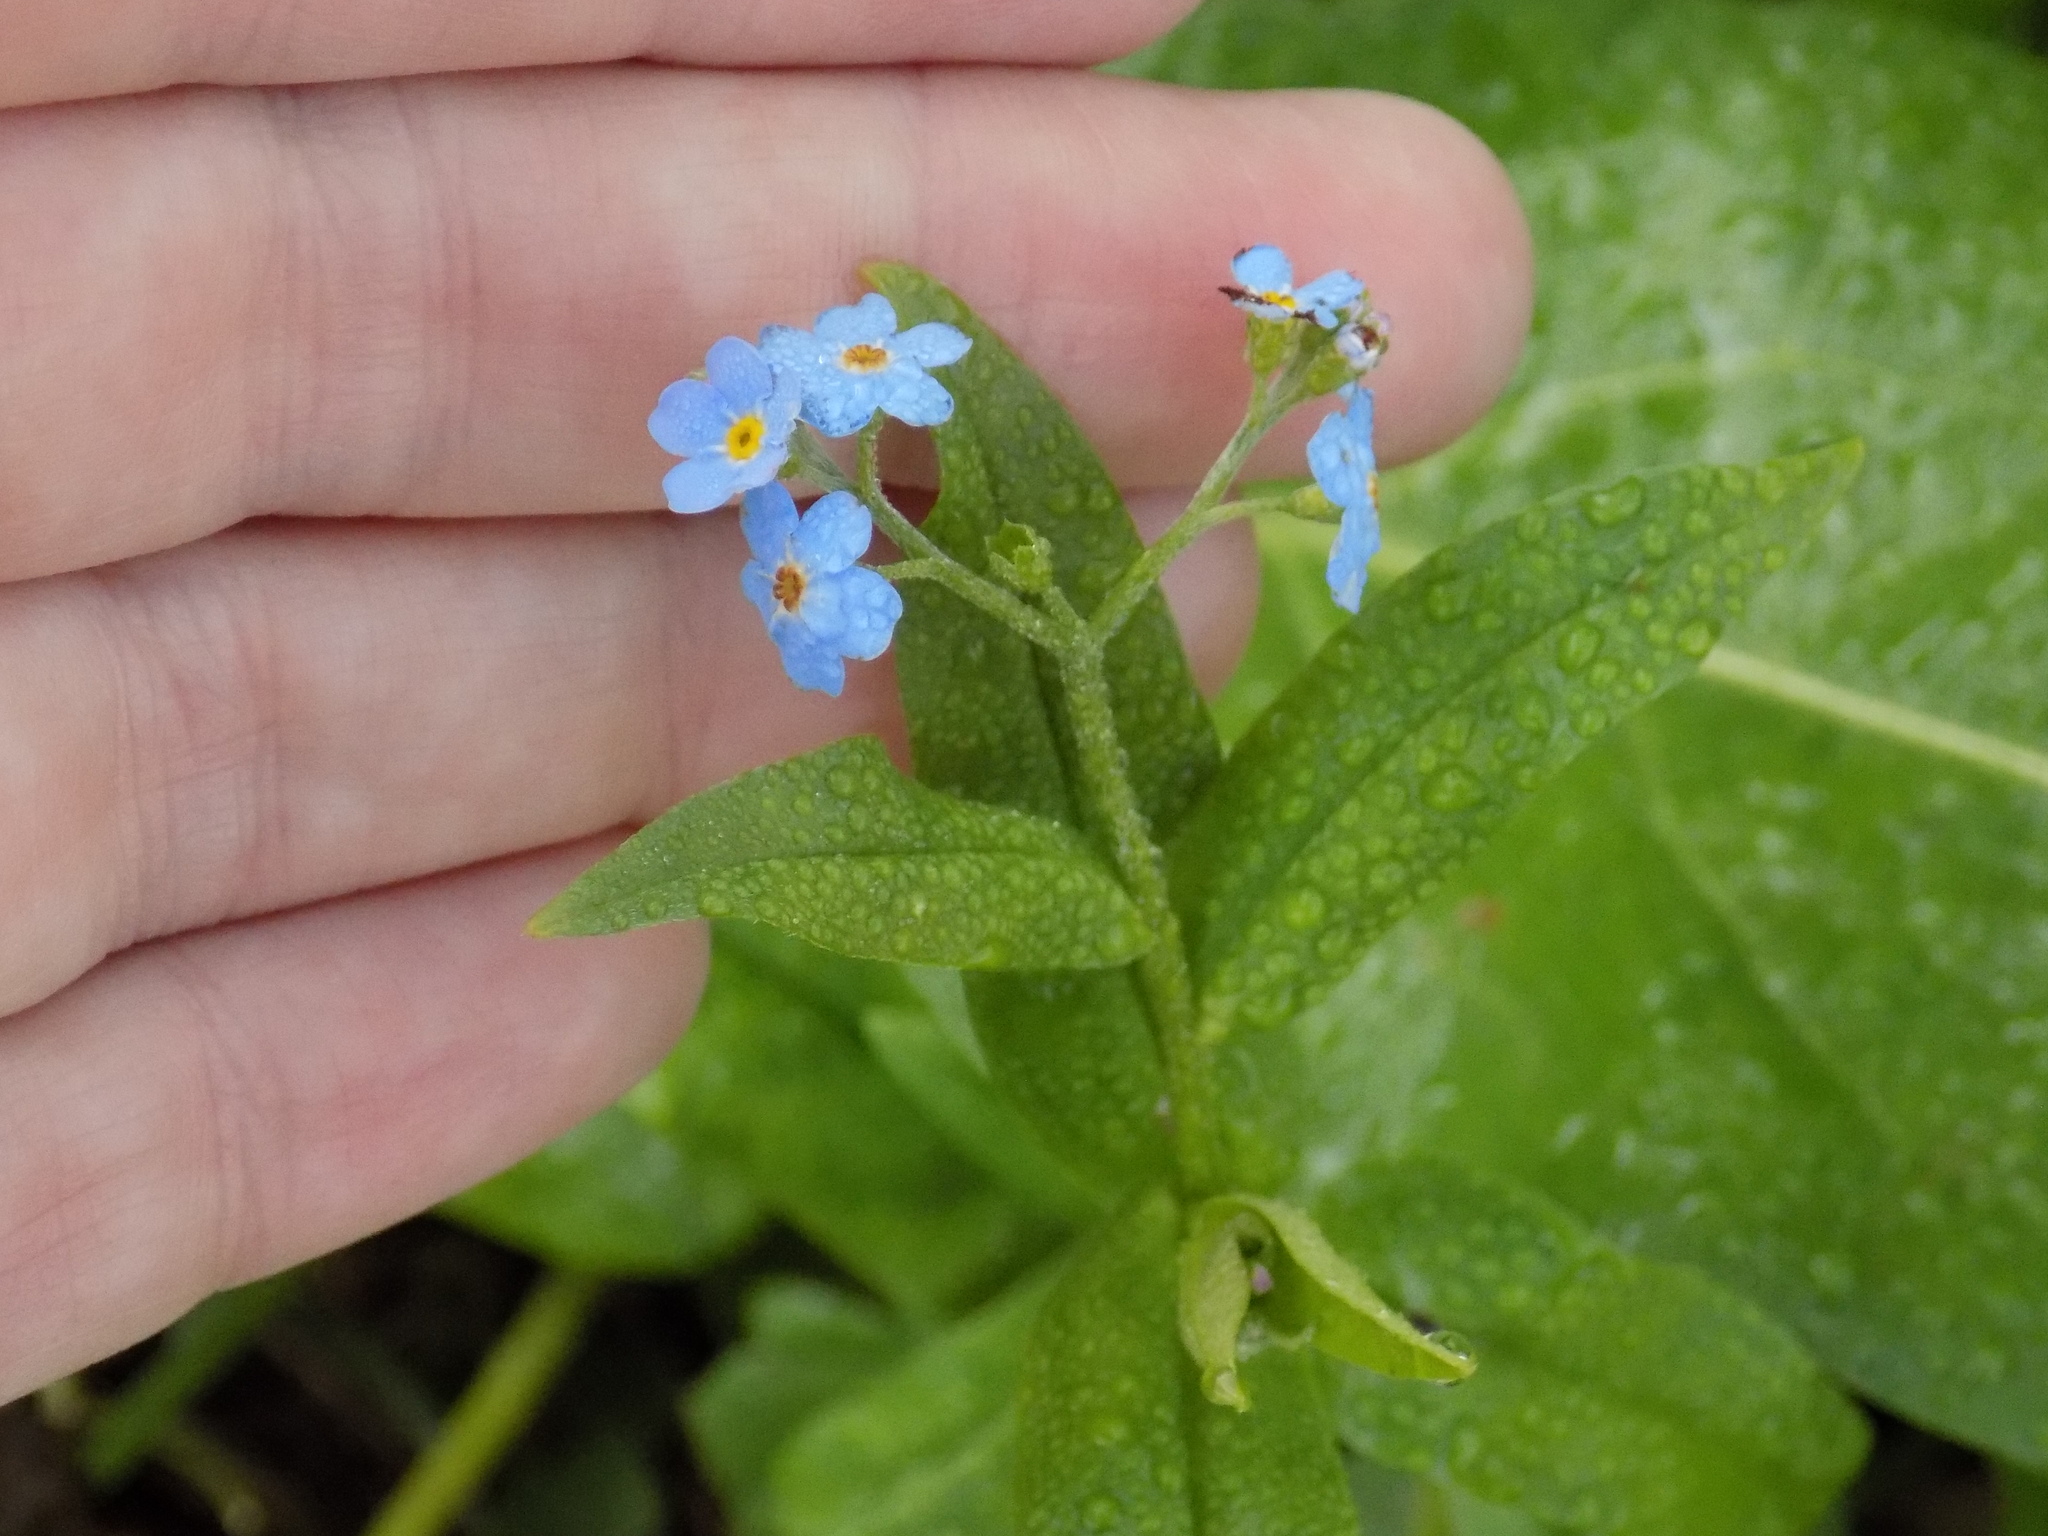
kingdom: Plantae
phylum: Tracheophyta
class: Magnoliopsida
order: Boraginales
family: Boraginaceae
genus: Myosotis
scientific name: Myosotis scorpioides
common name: Water forget-me-not
